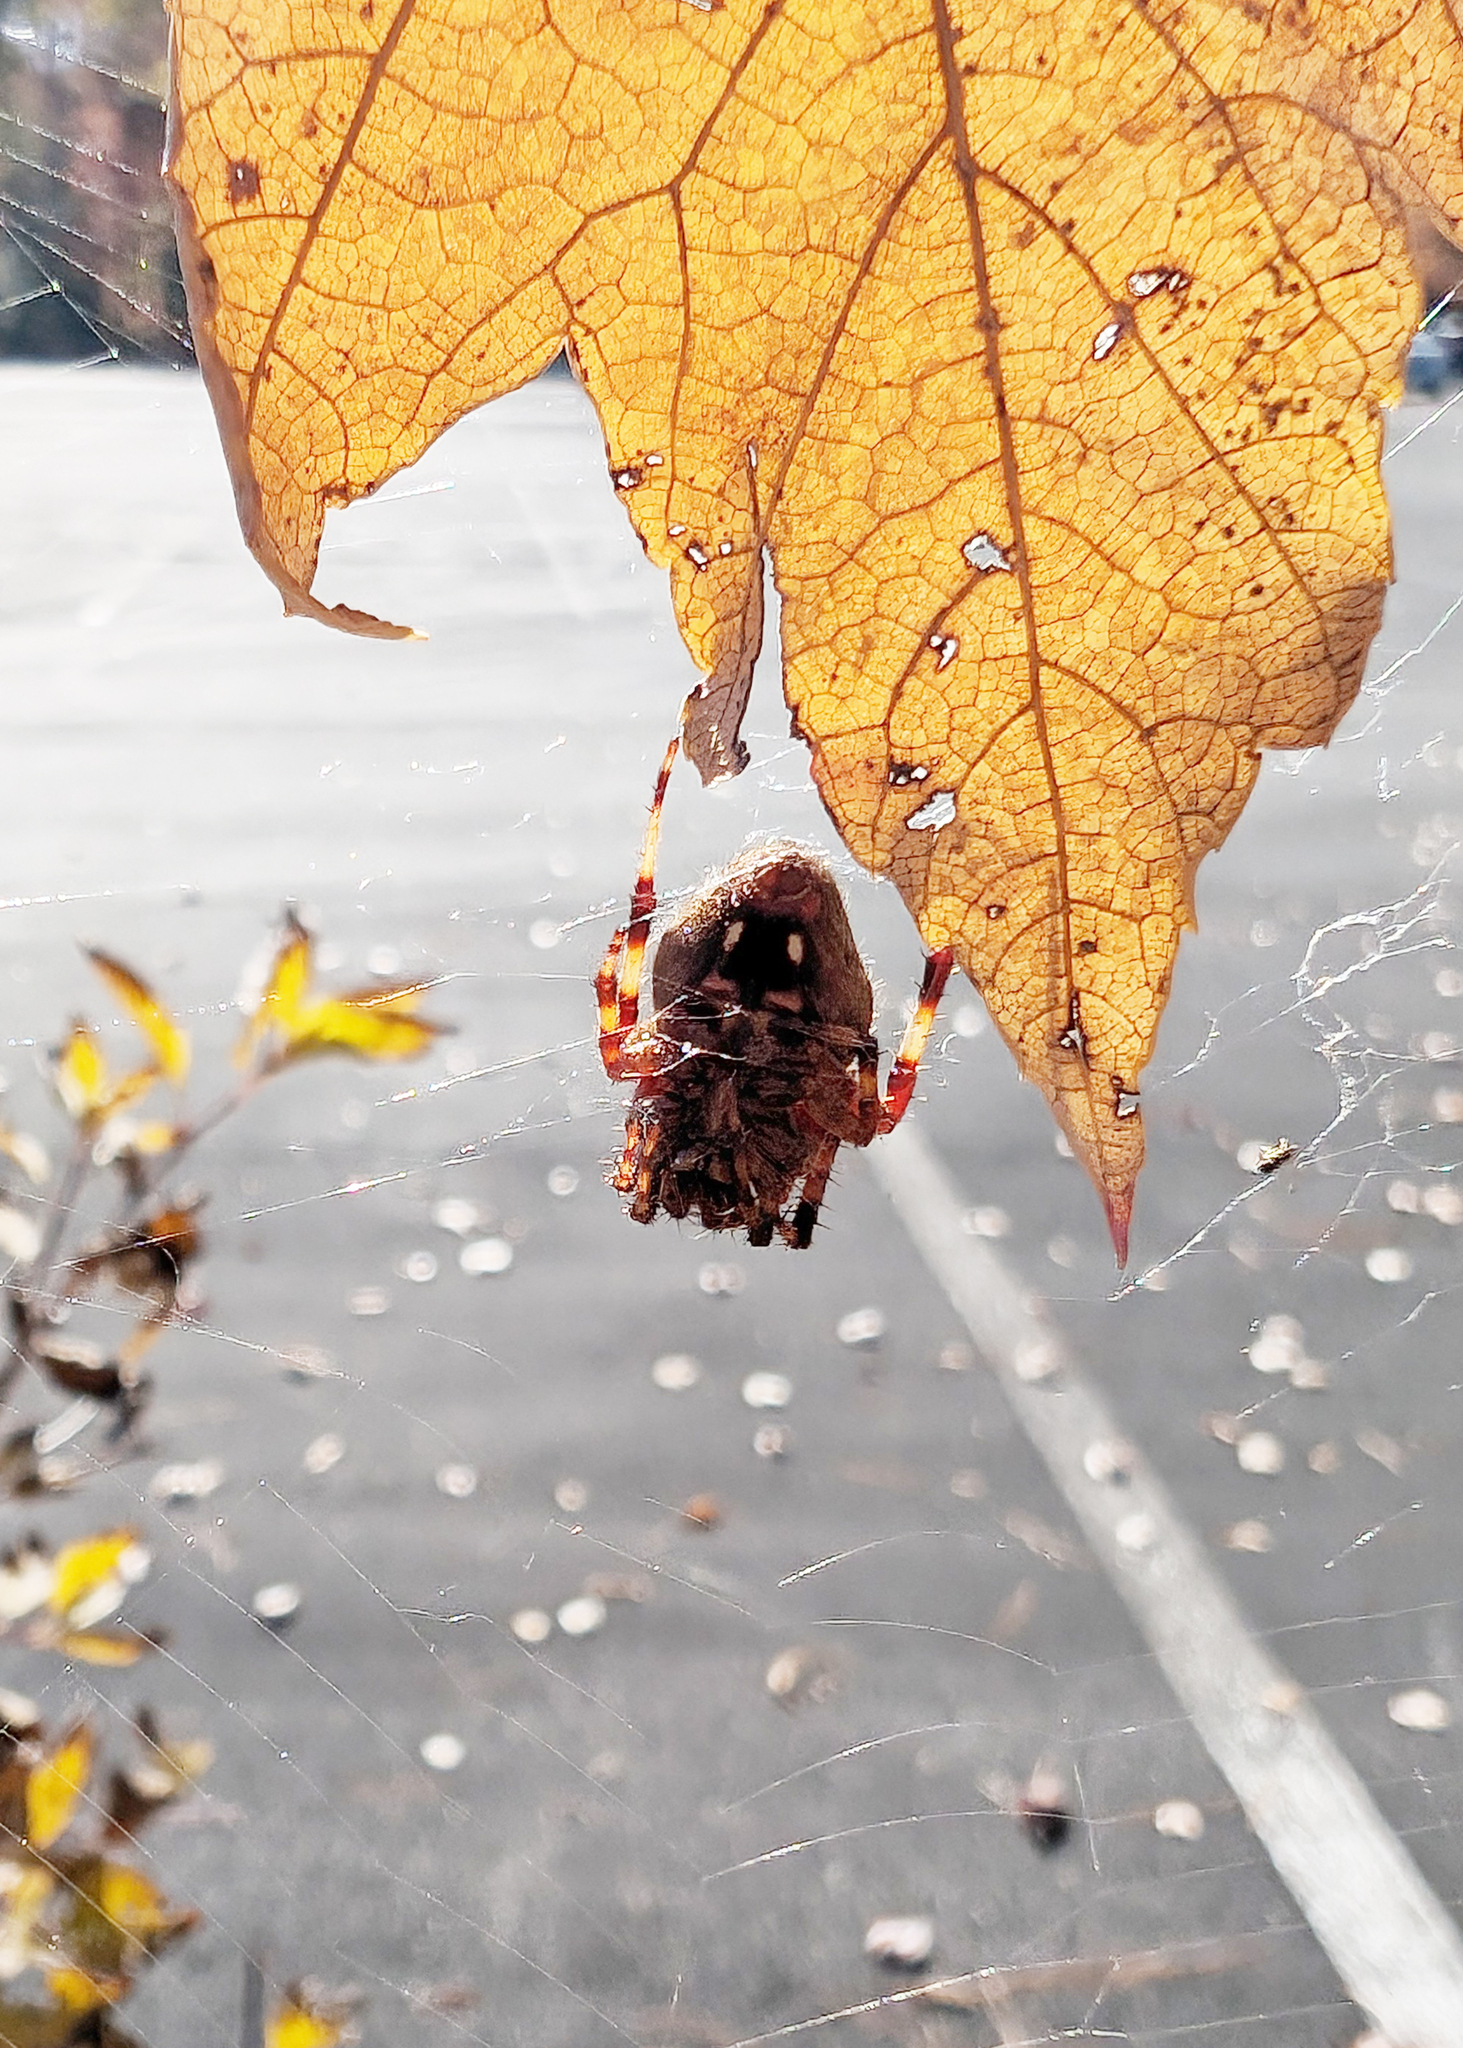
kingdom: Animalia
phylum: Arthropoda
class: Arachnida
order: Araneae
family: Araneidae
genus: Neoscona
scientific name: Neoscona crucifera
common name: Spotted orbweaver
